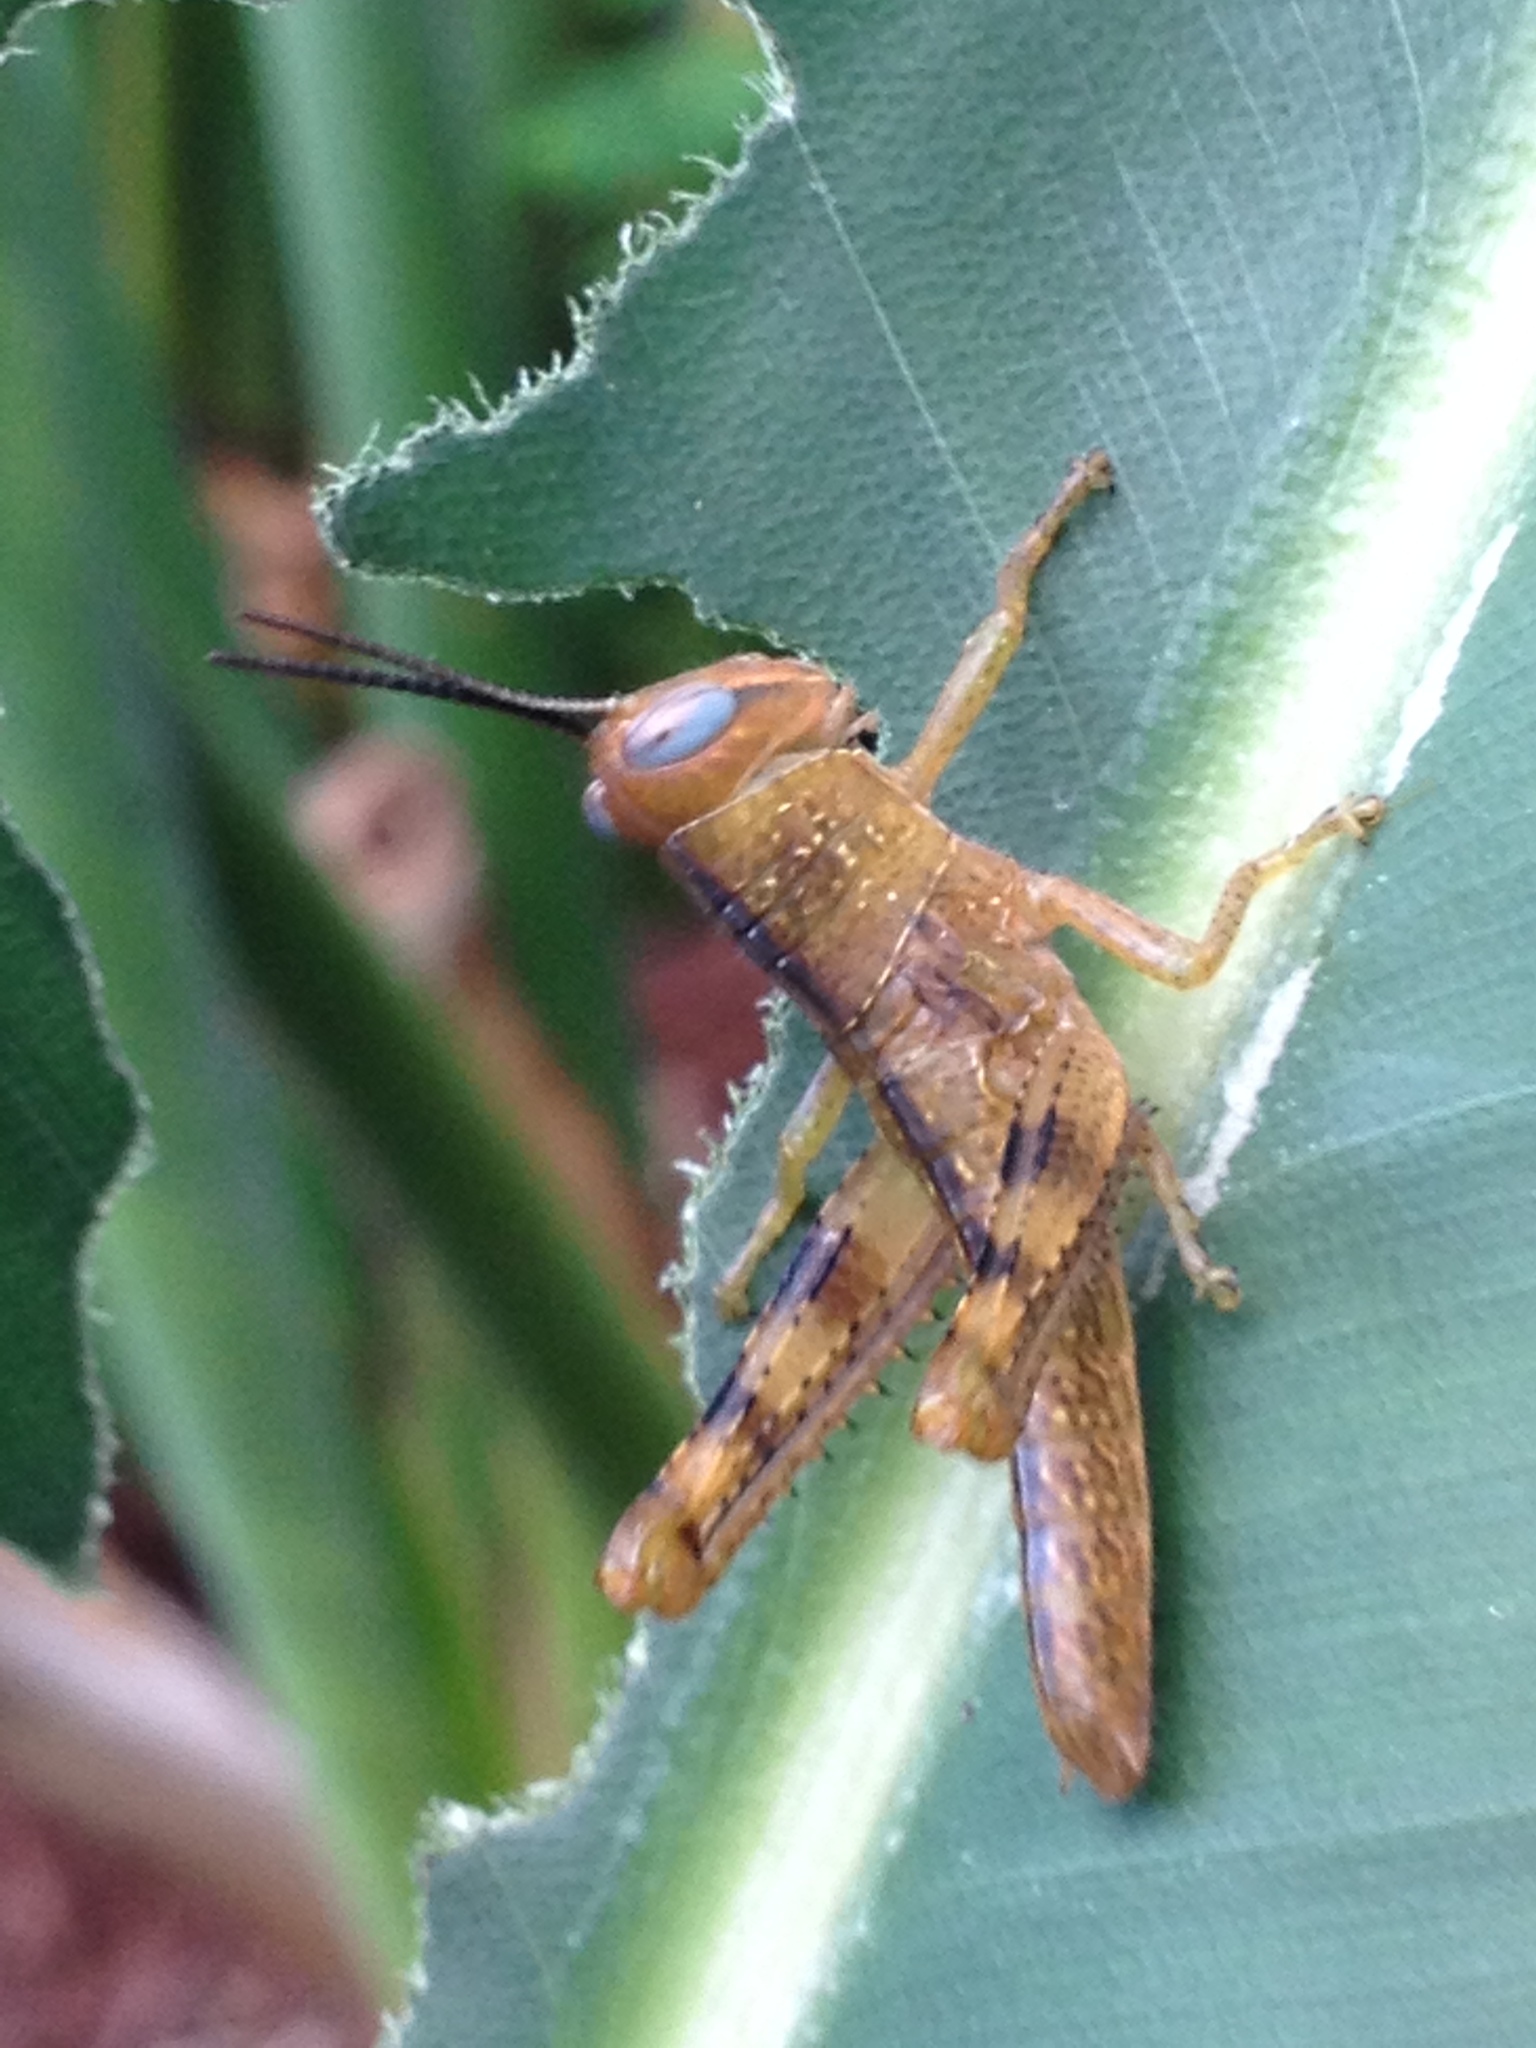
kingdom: Animalia
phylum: Arthropoda
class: Insecta
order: Orthoptera
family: Acrididae
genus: Valanga
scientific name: Valanga irregularis
